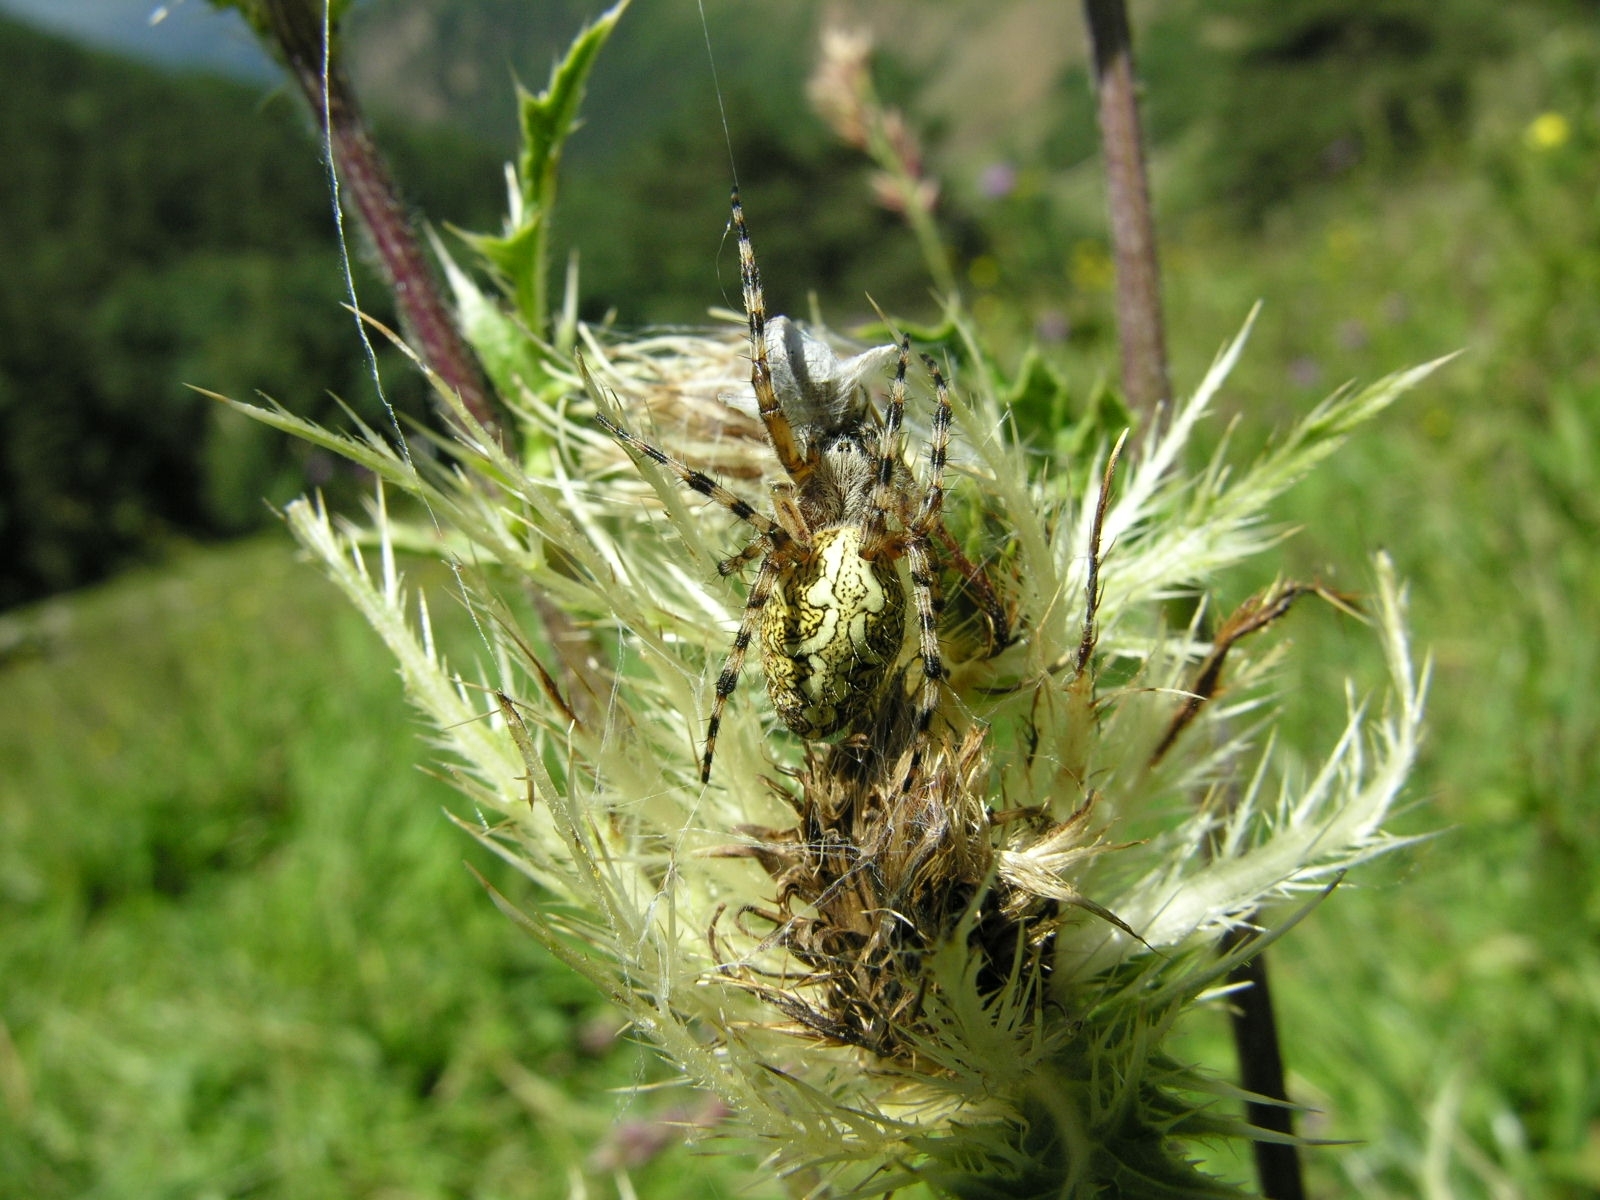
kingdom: Animalia
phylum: Arthropoda
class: Arachnida
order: Araneae
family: Araneidae
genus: Aculepeira
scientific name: Aculepeira ceropegia
